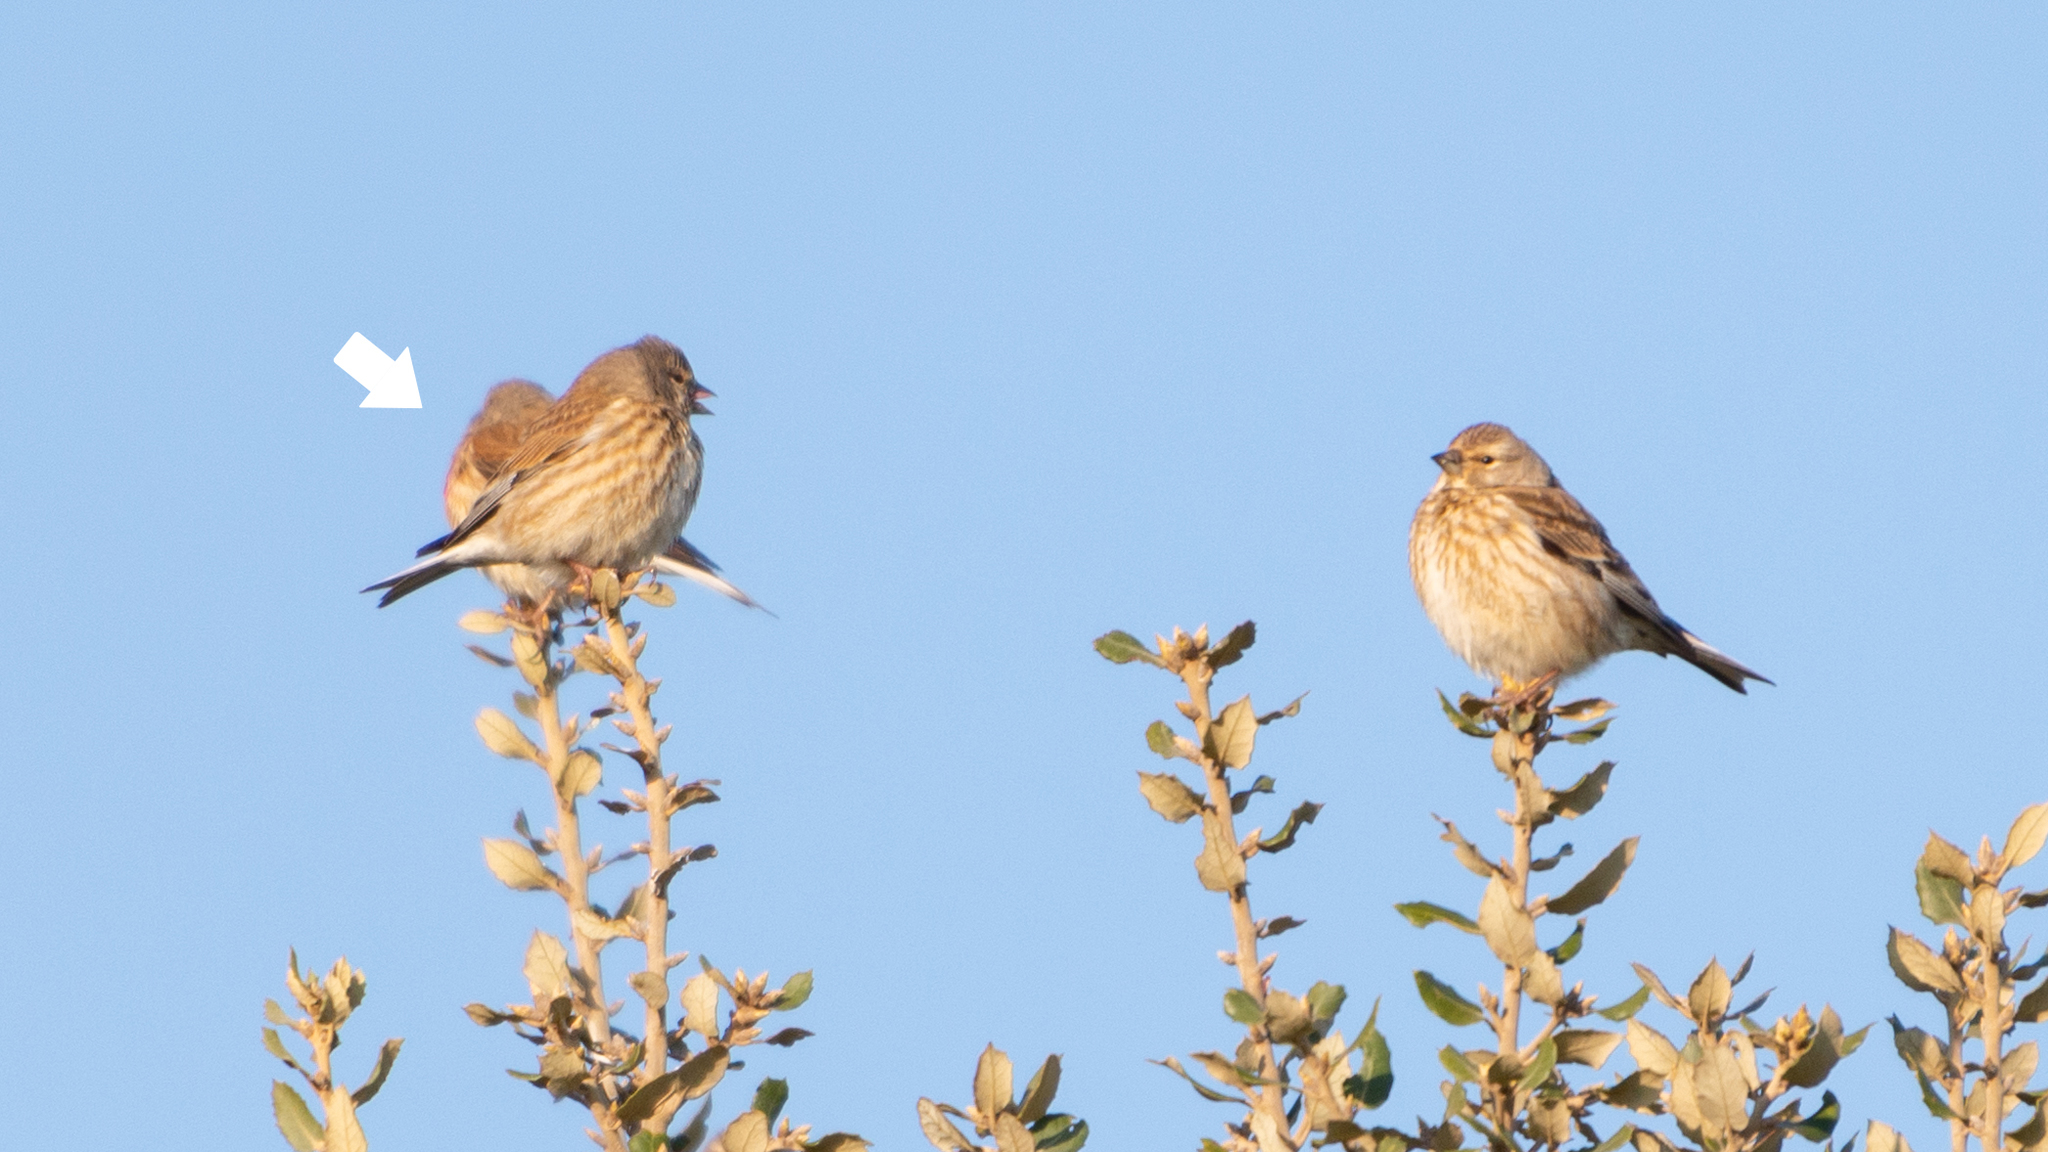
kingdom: Animalia
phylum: Chordata
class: Aves
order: Passeriformes
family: Fringillidae
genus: Linaria
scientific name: Linaria cannabina
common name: Common linnet
